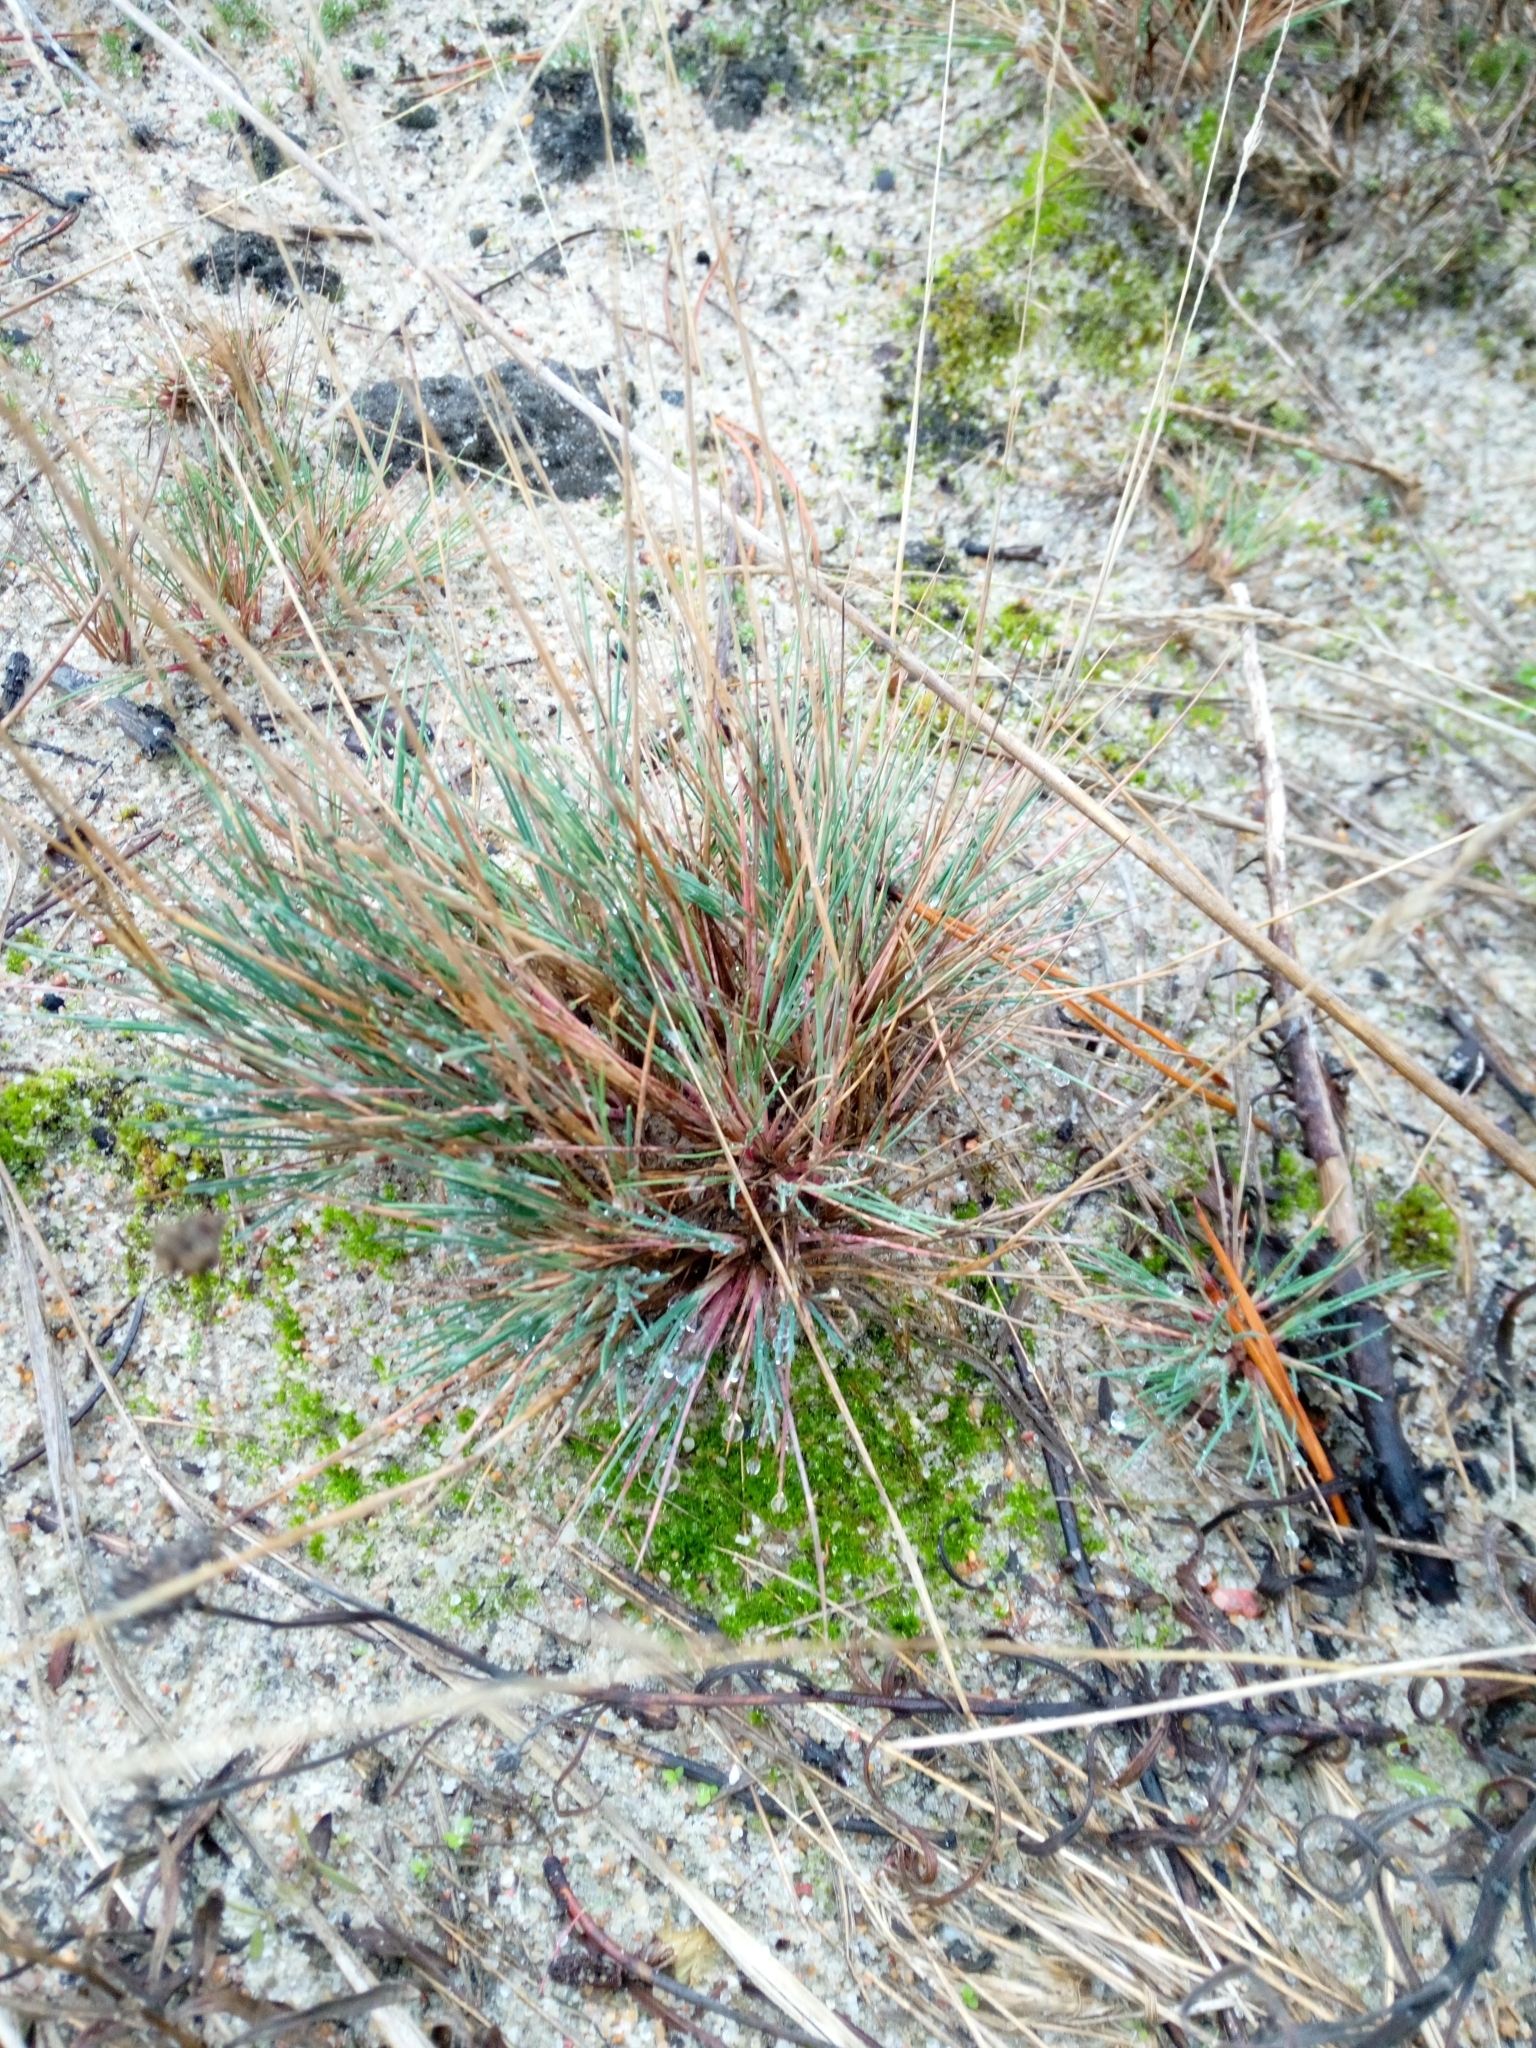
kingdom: Plantae
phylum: Tracheophyta
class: Liliopsida
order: Poales
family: Poaceae
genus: Corynephorus
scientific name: Corynephorus canescens
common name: Grey hair-grass
